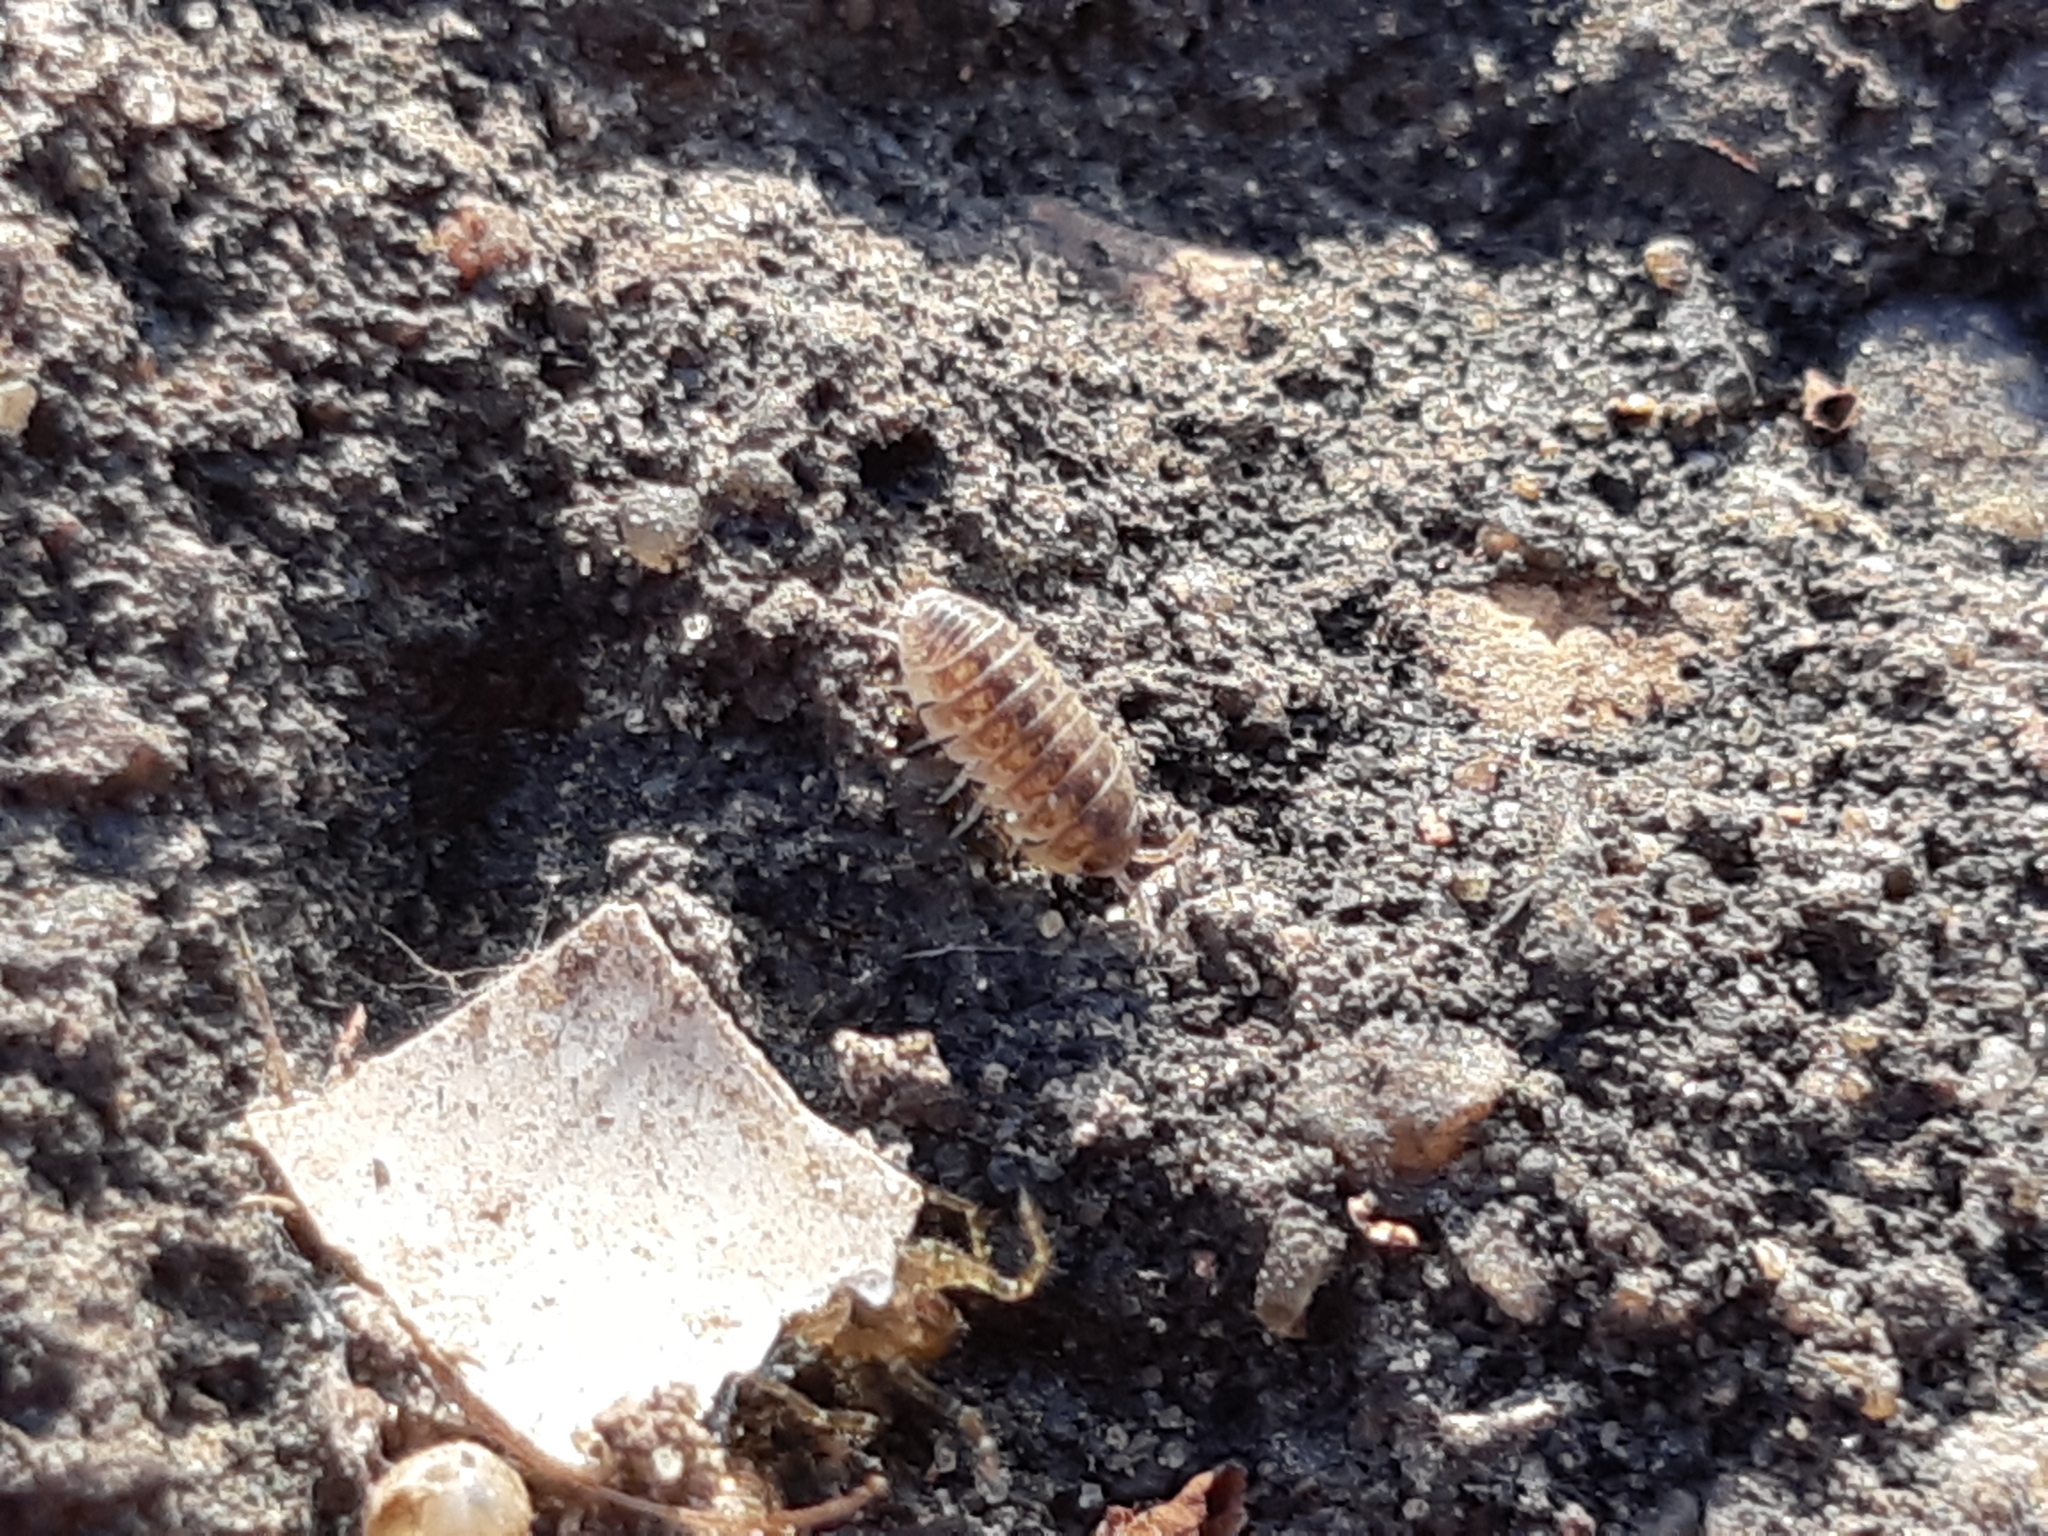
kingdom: Animalia
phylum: Arthropoda
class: Malacostraca
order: Isopoda
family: Armadillidiidae
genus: Armadillidium
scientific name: Armadillidium versicolor
